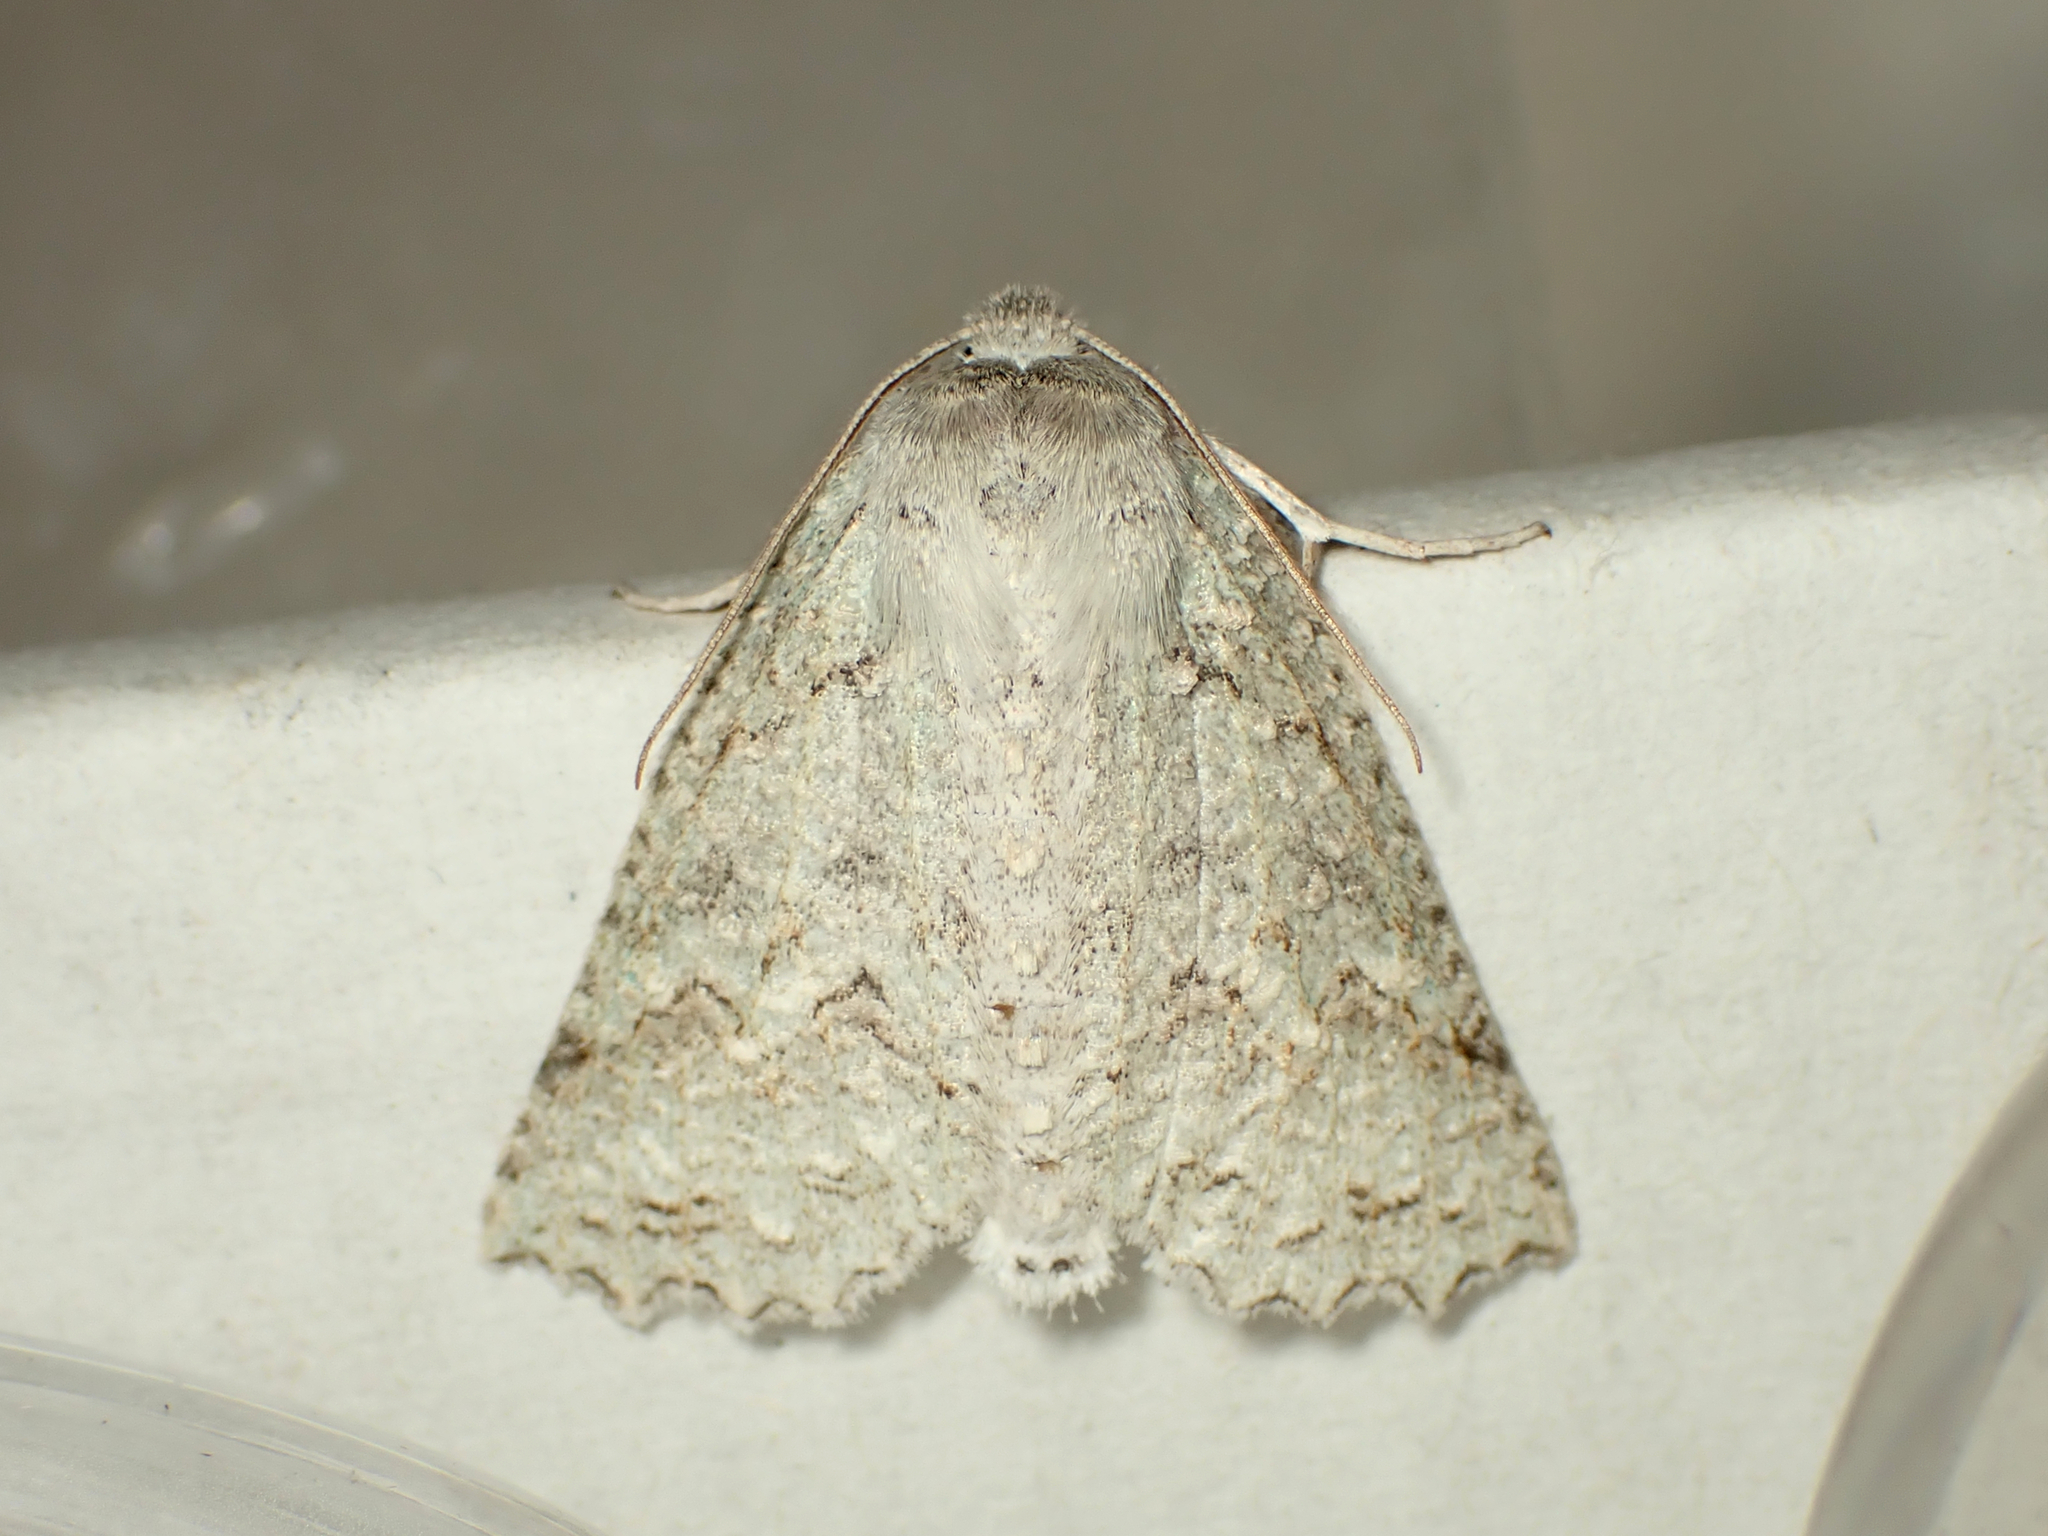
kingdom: Animalia
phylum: Arthropoda
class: Insecta
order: Lepidoptera
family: Geometridae
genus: Declana
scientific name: Declana niveata
